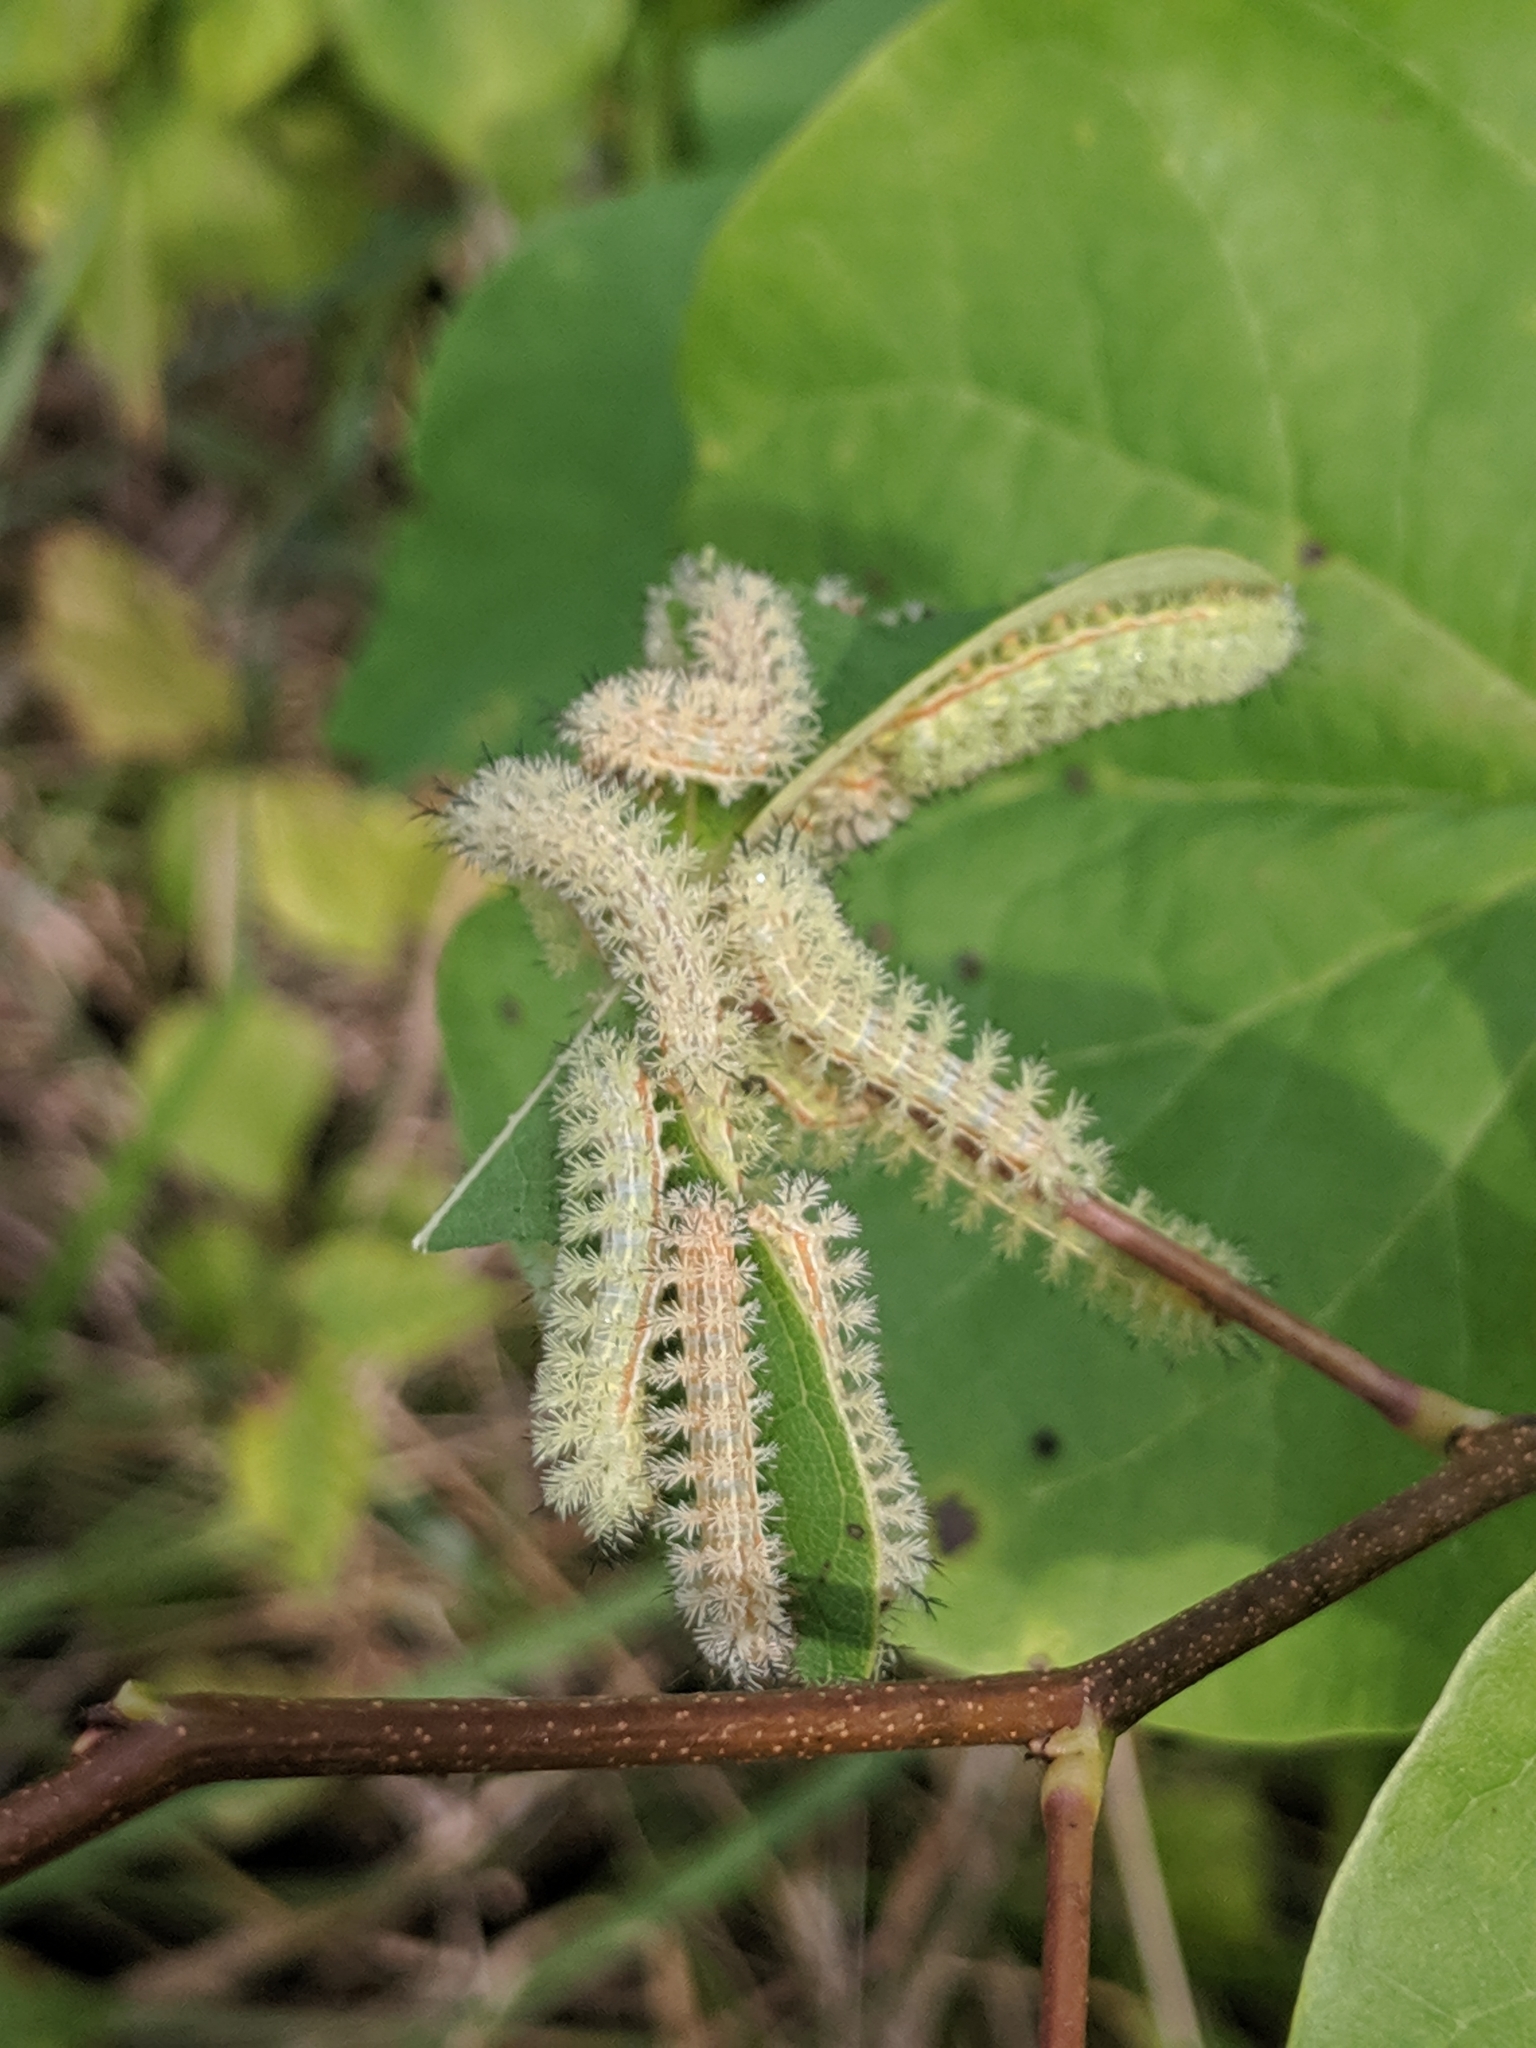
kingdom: Animalia
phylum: Arthropoda
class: Insecta
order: Lepidoptera
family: Saturniidae
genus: Automeris
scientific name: Automeris io
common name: Io moth
